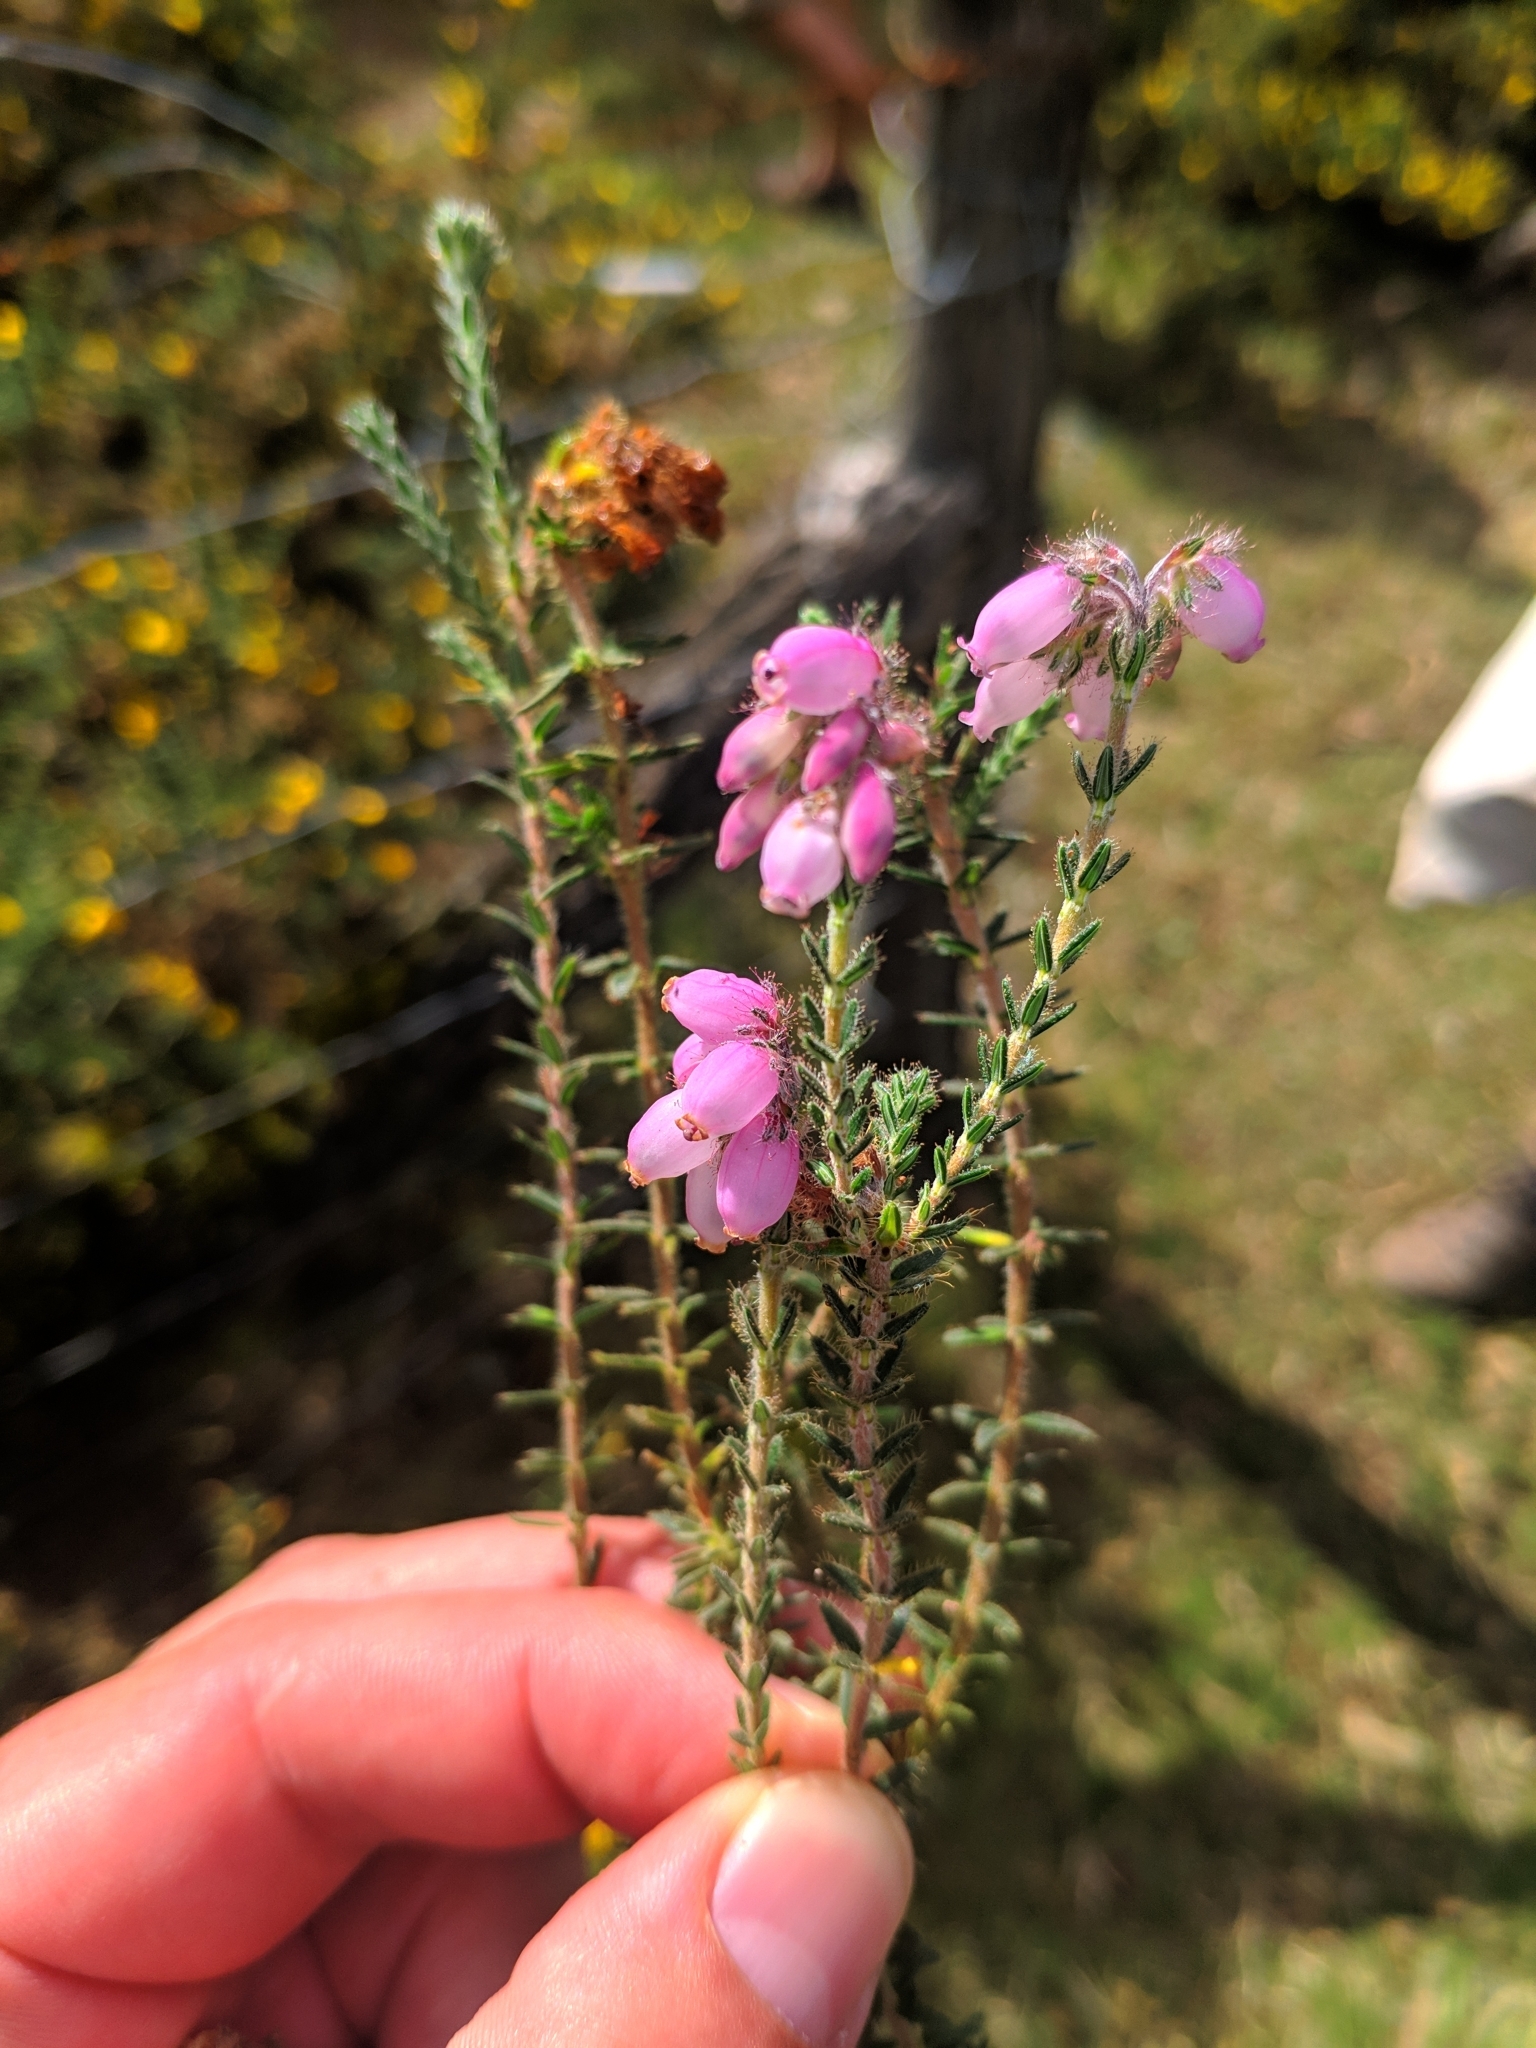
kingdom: Plantae
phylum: Tracheophyta
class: Magnoliopsida
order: Ericales
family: Ericaceae
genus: Erica
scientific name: Erica tetralix
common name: Cross-leaved heath
